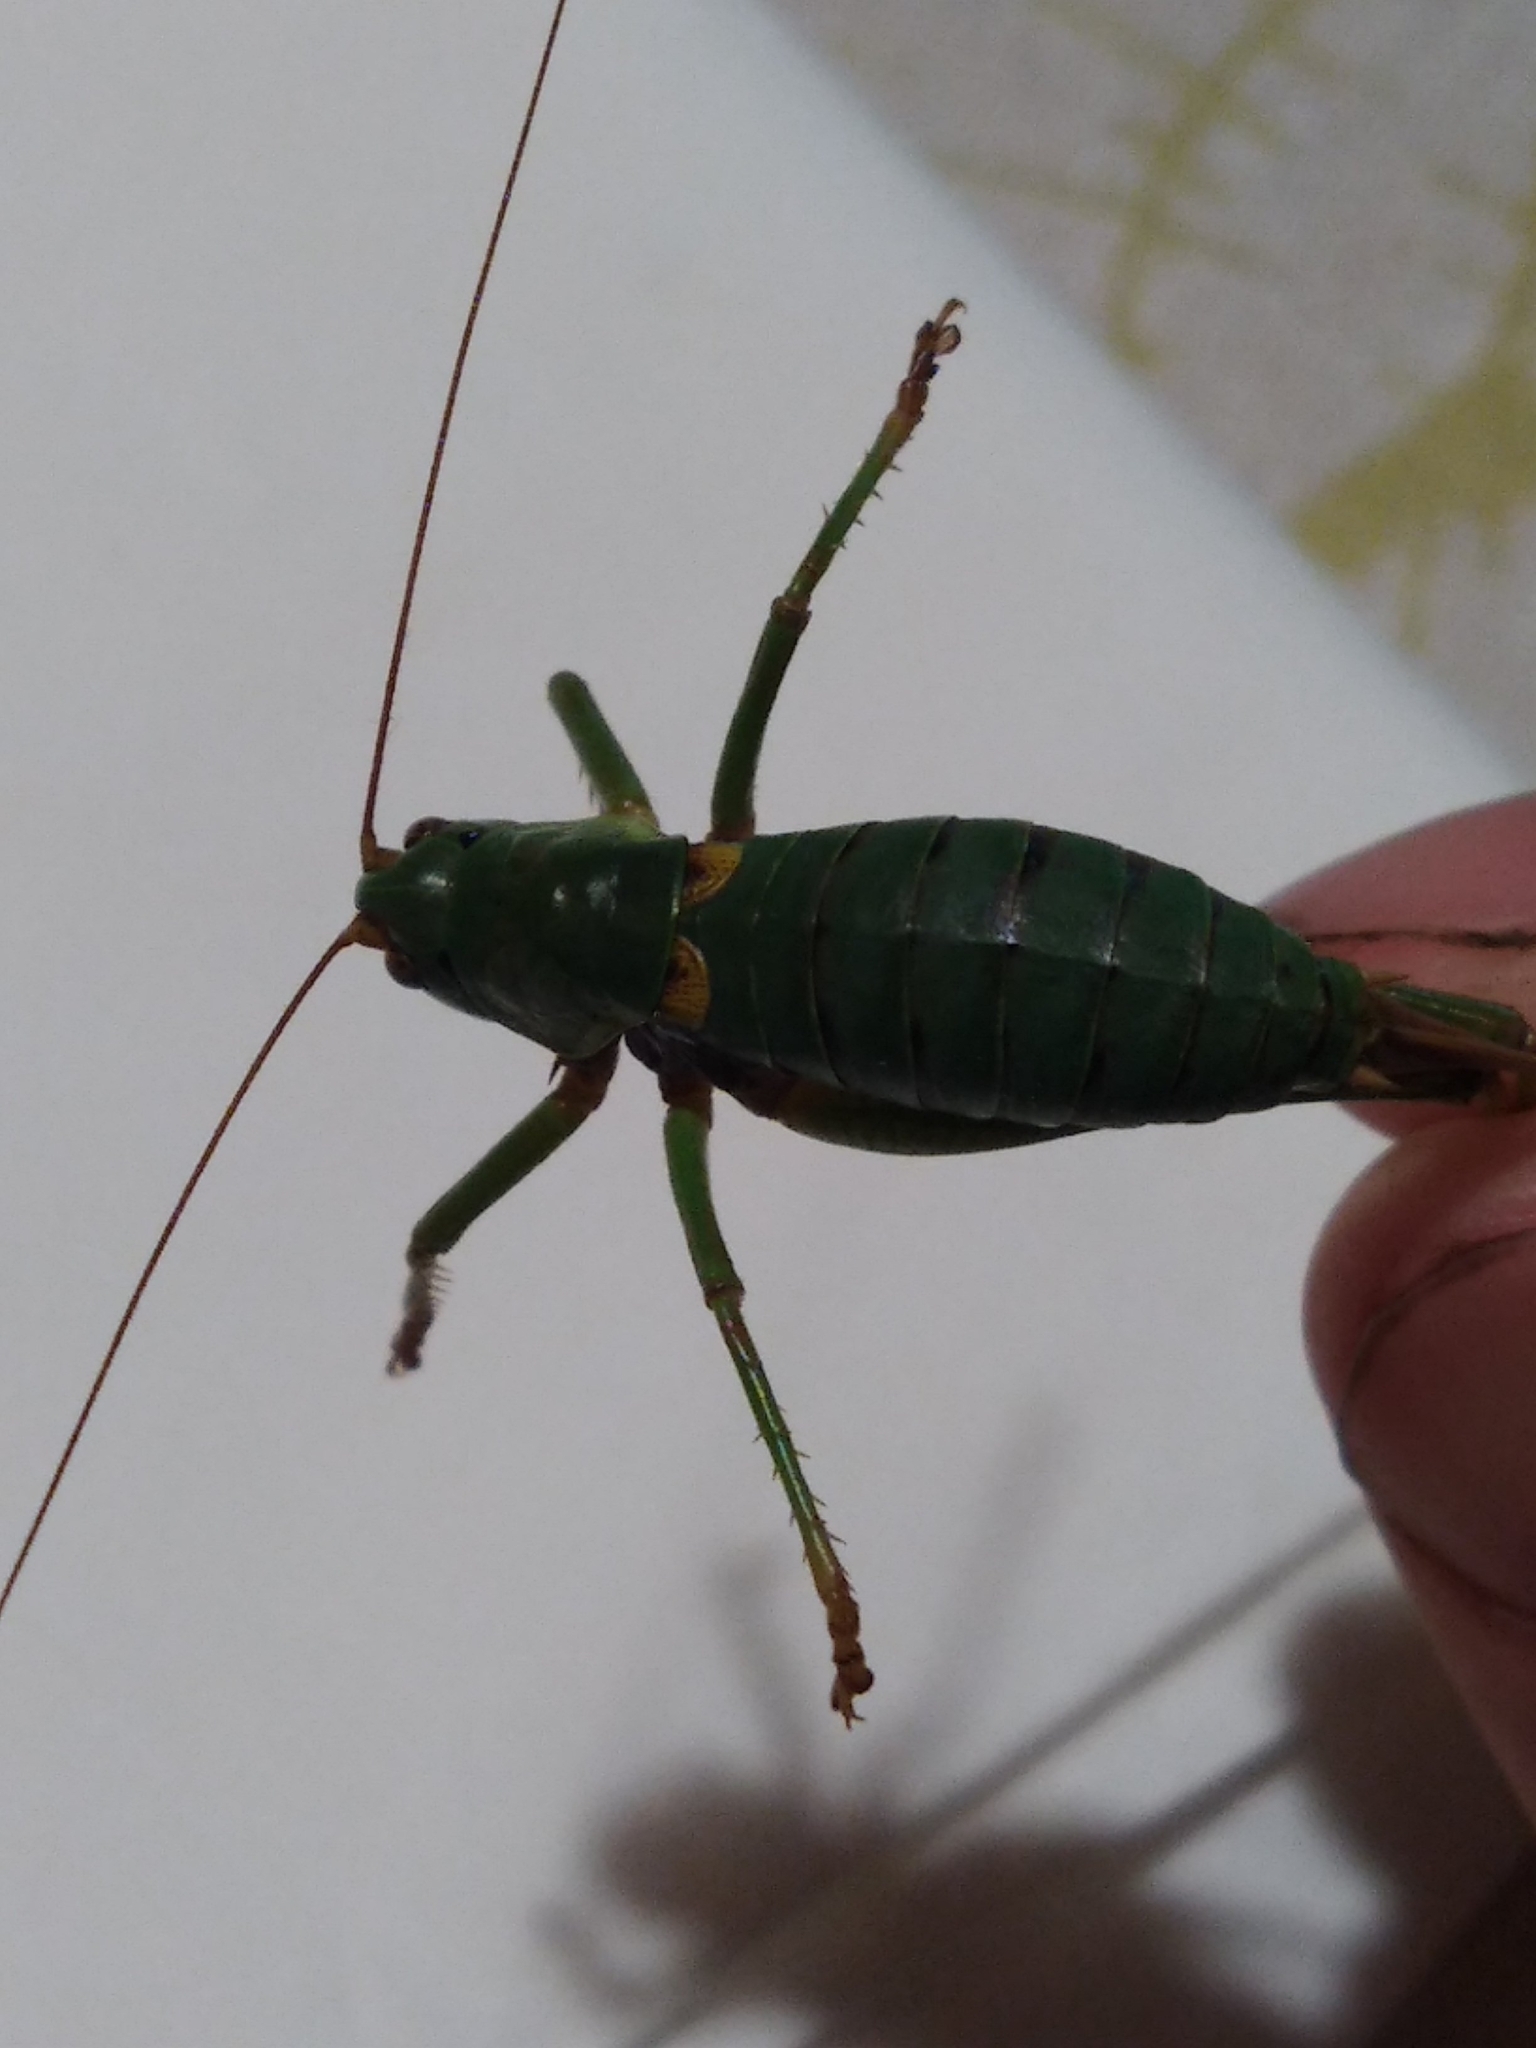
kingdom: Animalia
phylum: Arthropoda
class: Insecta
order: Orthoptera
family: Tettigoniidae
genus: Antaxius
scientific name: Antaxius sorrezensis
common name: French mountain bush-cricket
